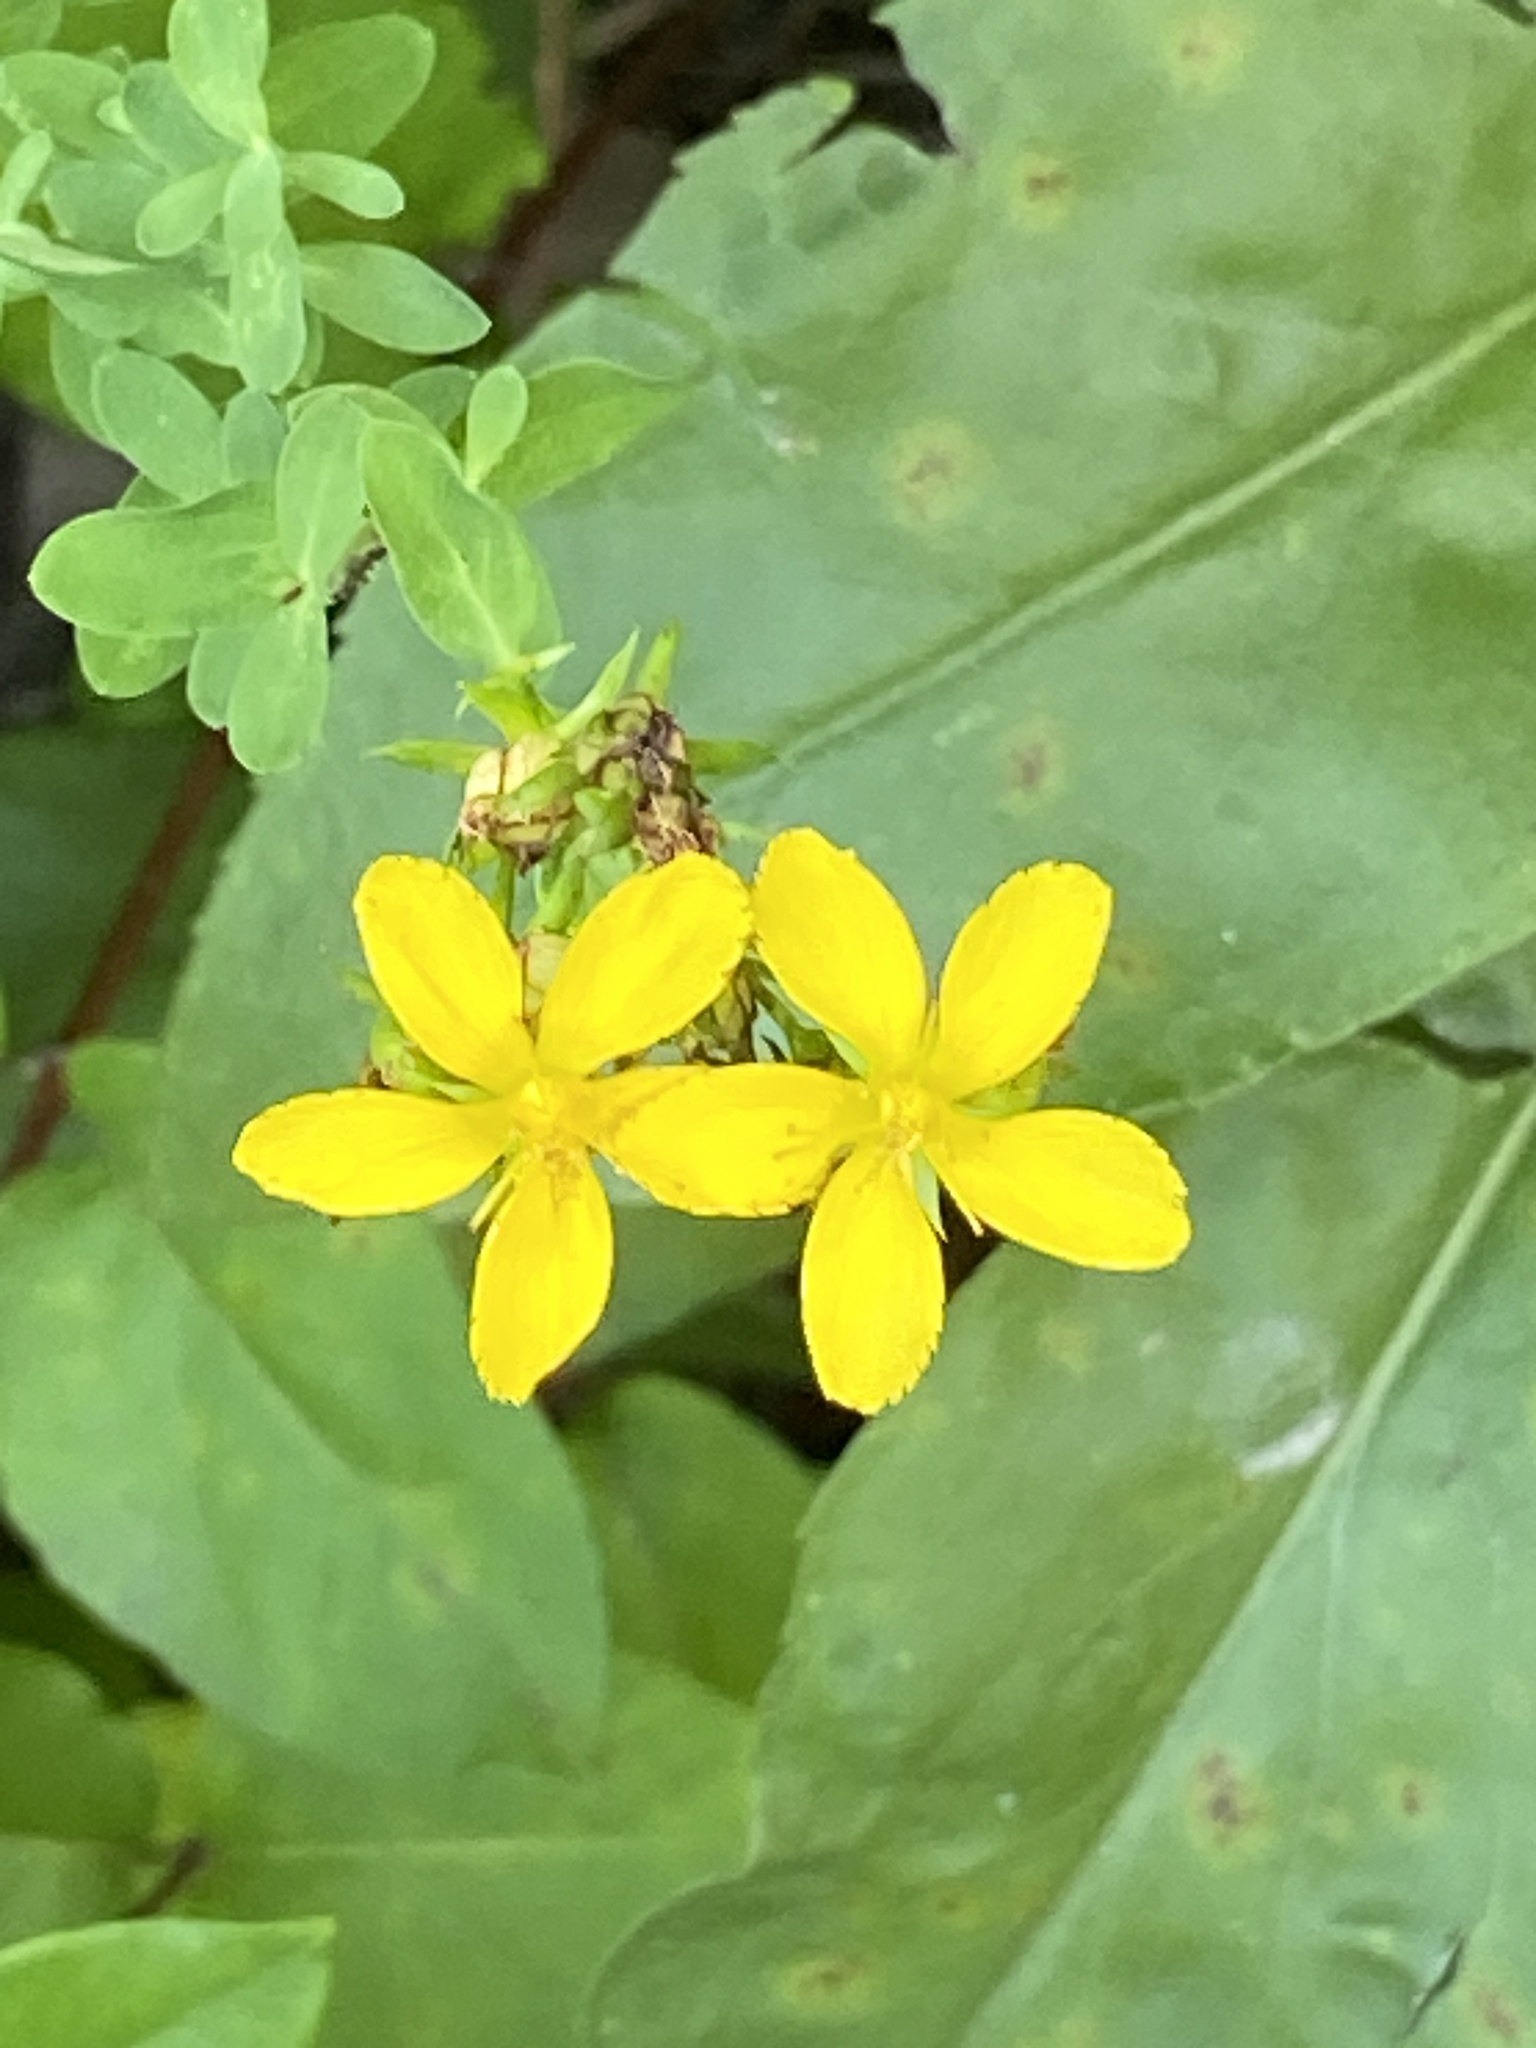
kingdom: Plantae
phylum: Tracheophyta
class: Magnoliopsida
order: Malpighiales
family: Hypericaceae
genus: Hypericum
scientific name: Hypericum perforatum
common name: Common st. johnswort
